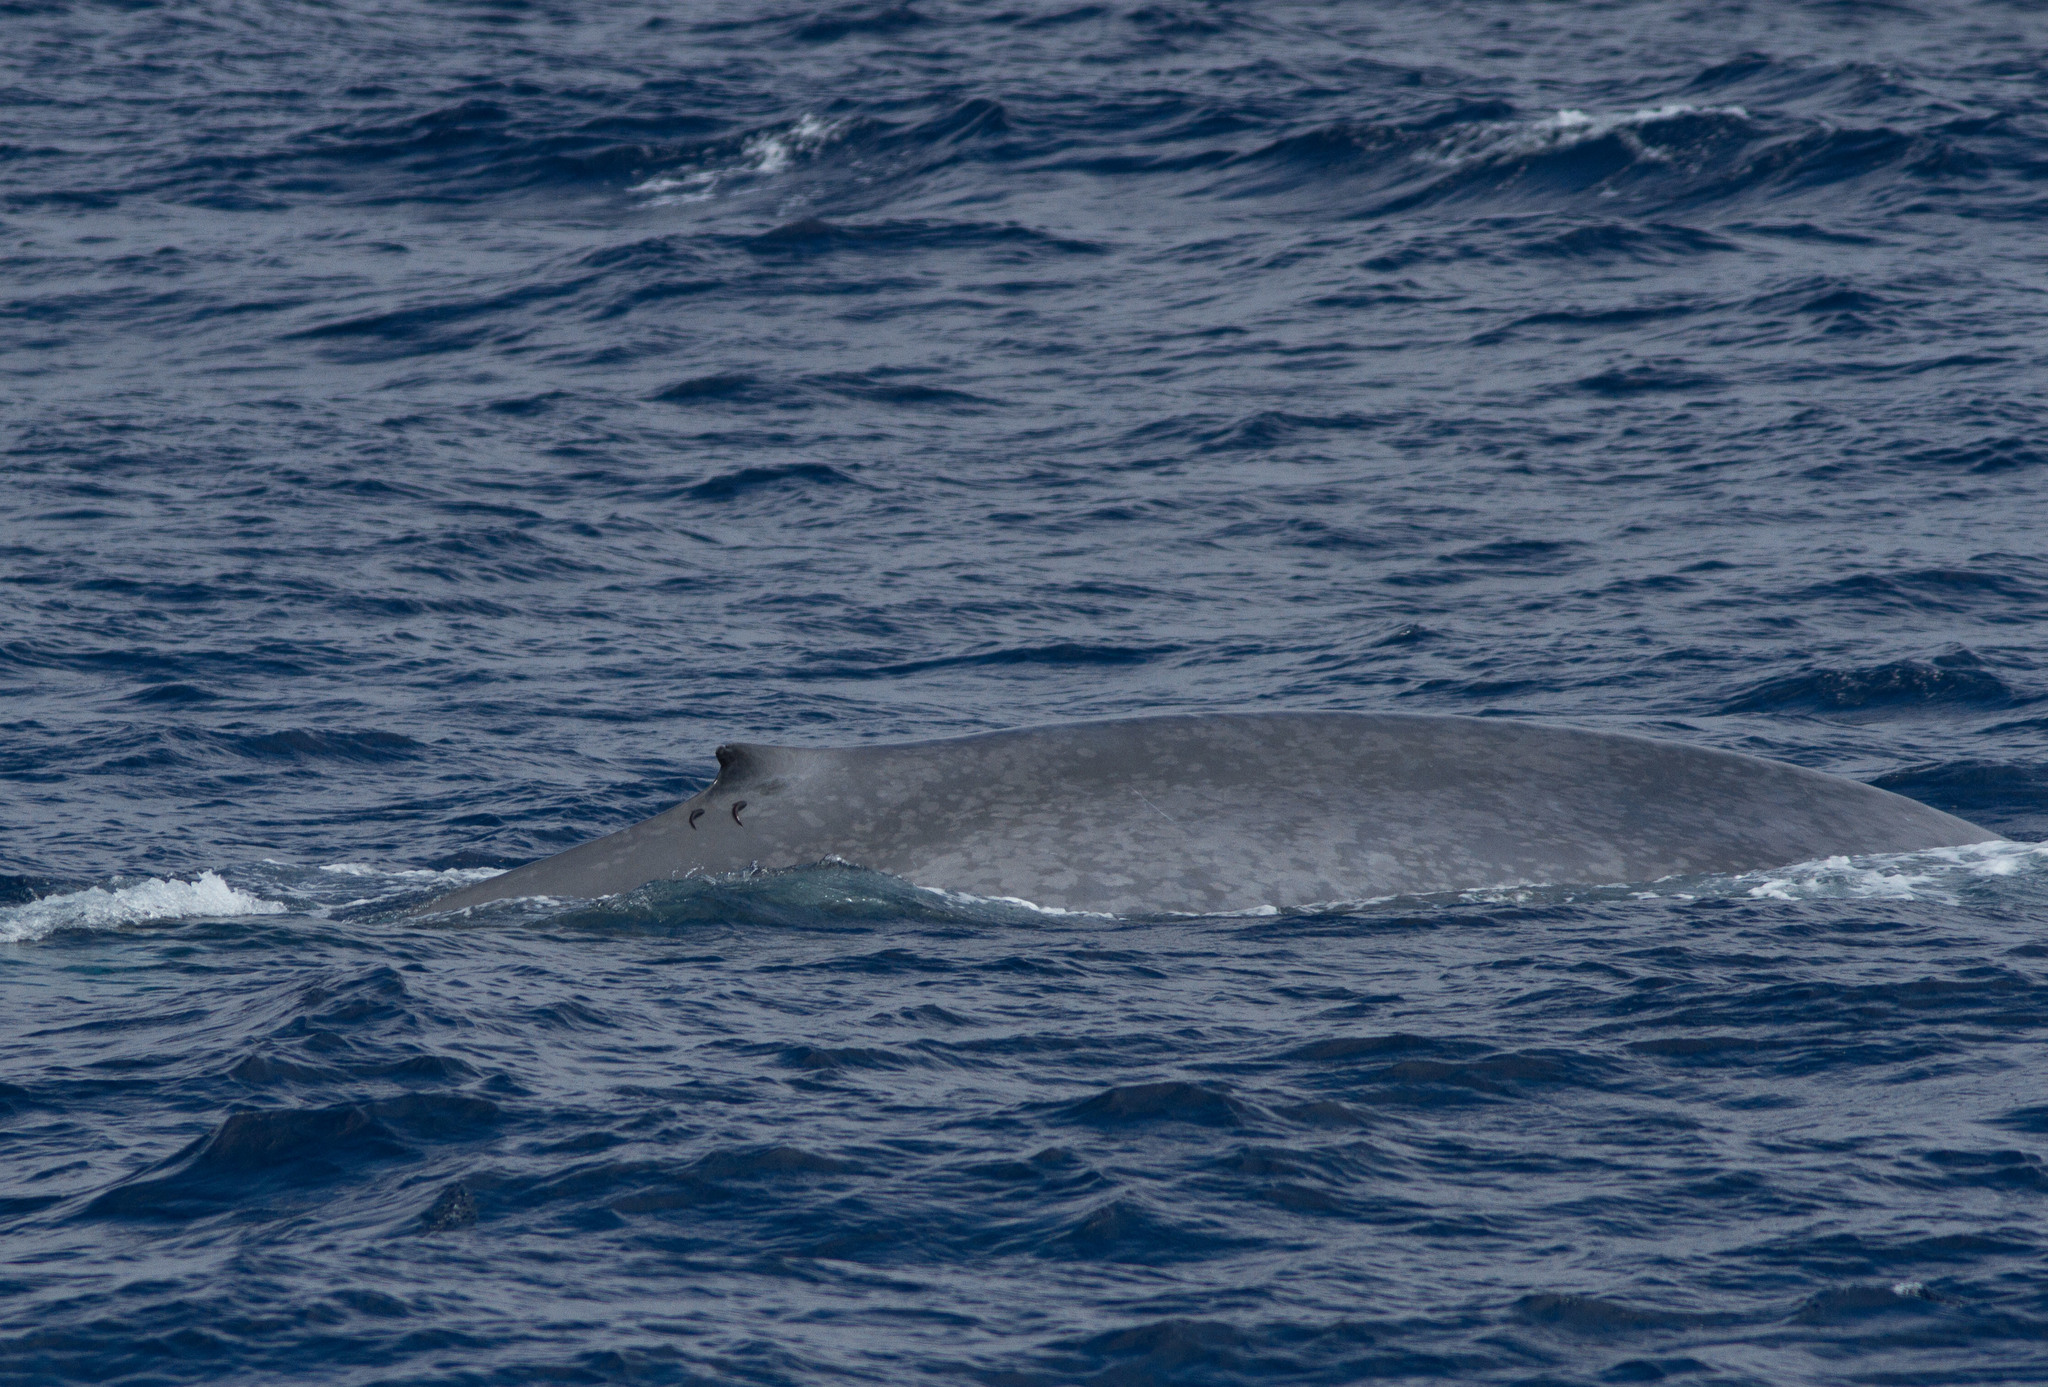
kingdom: Animalia
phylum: Chordata
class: Mammalia
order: Cetacea
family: Balaenopteridae
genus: Balaenoptera
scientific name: Balaenoptera musculus
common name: Blue whale
